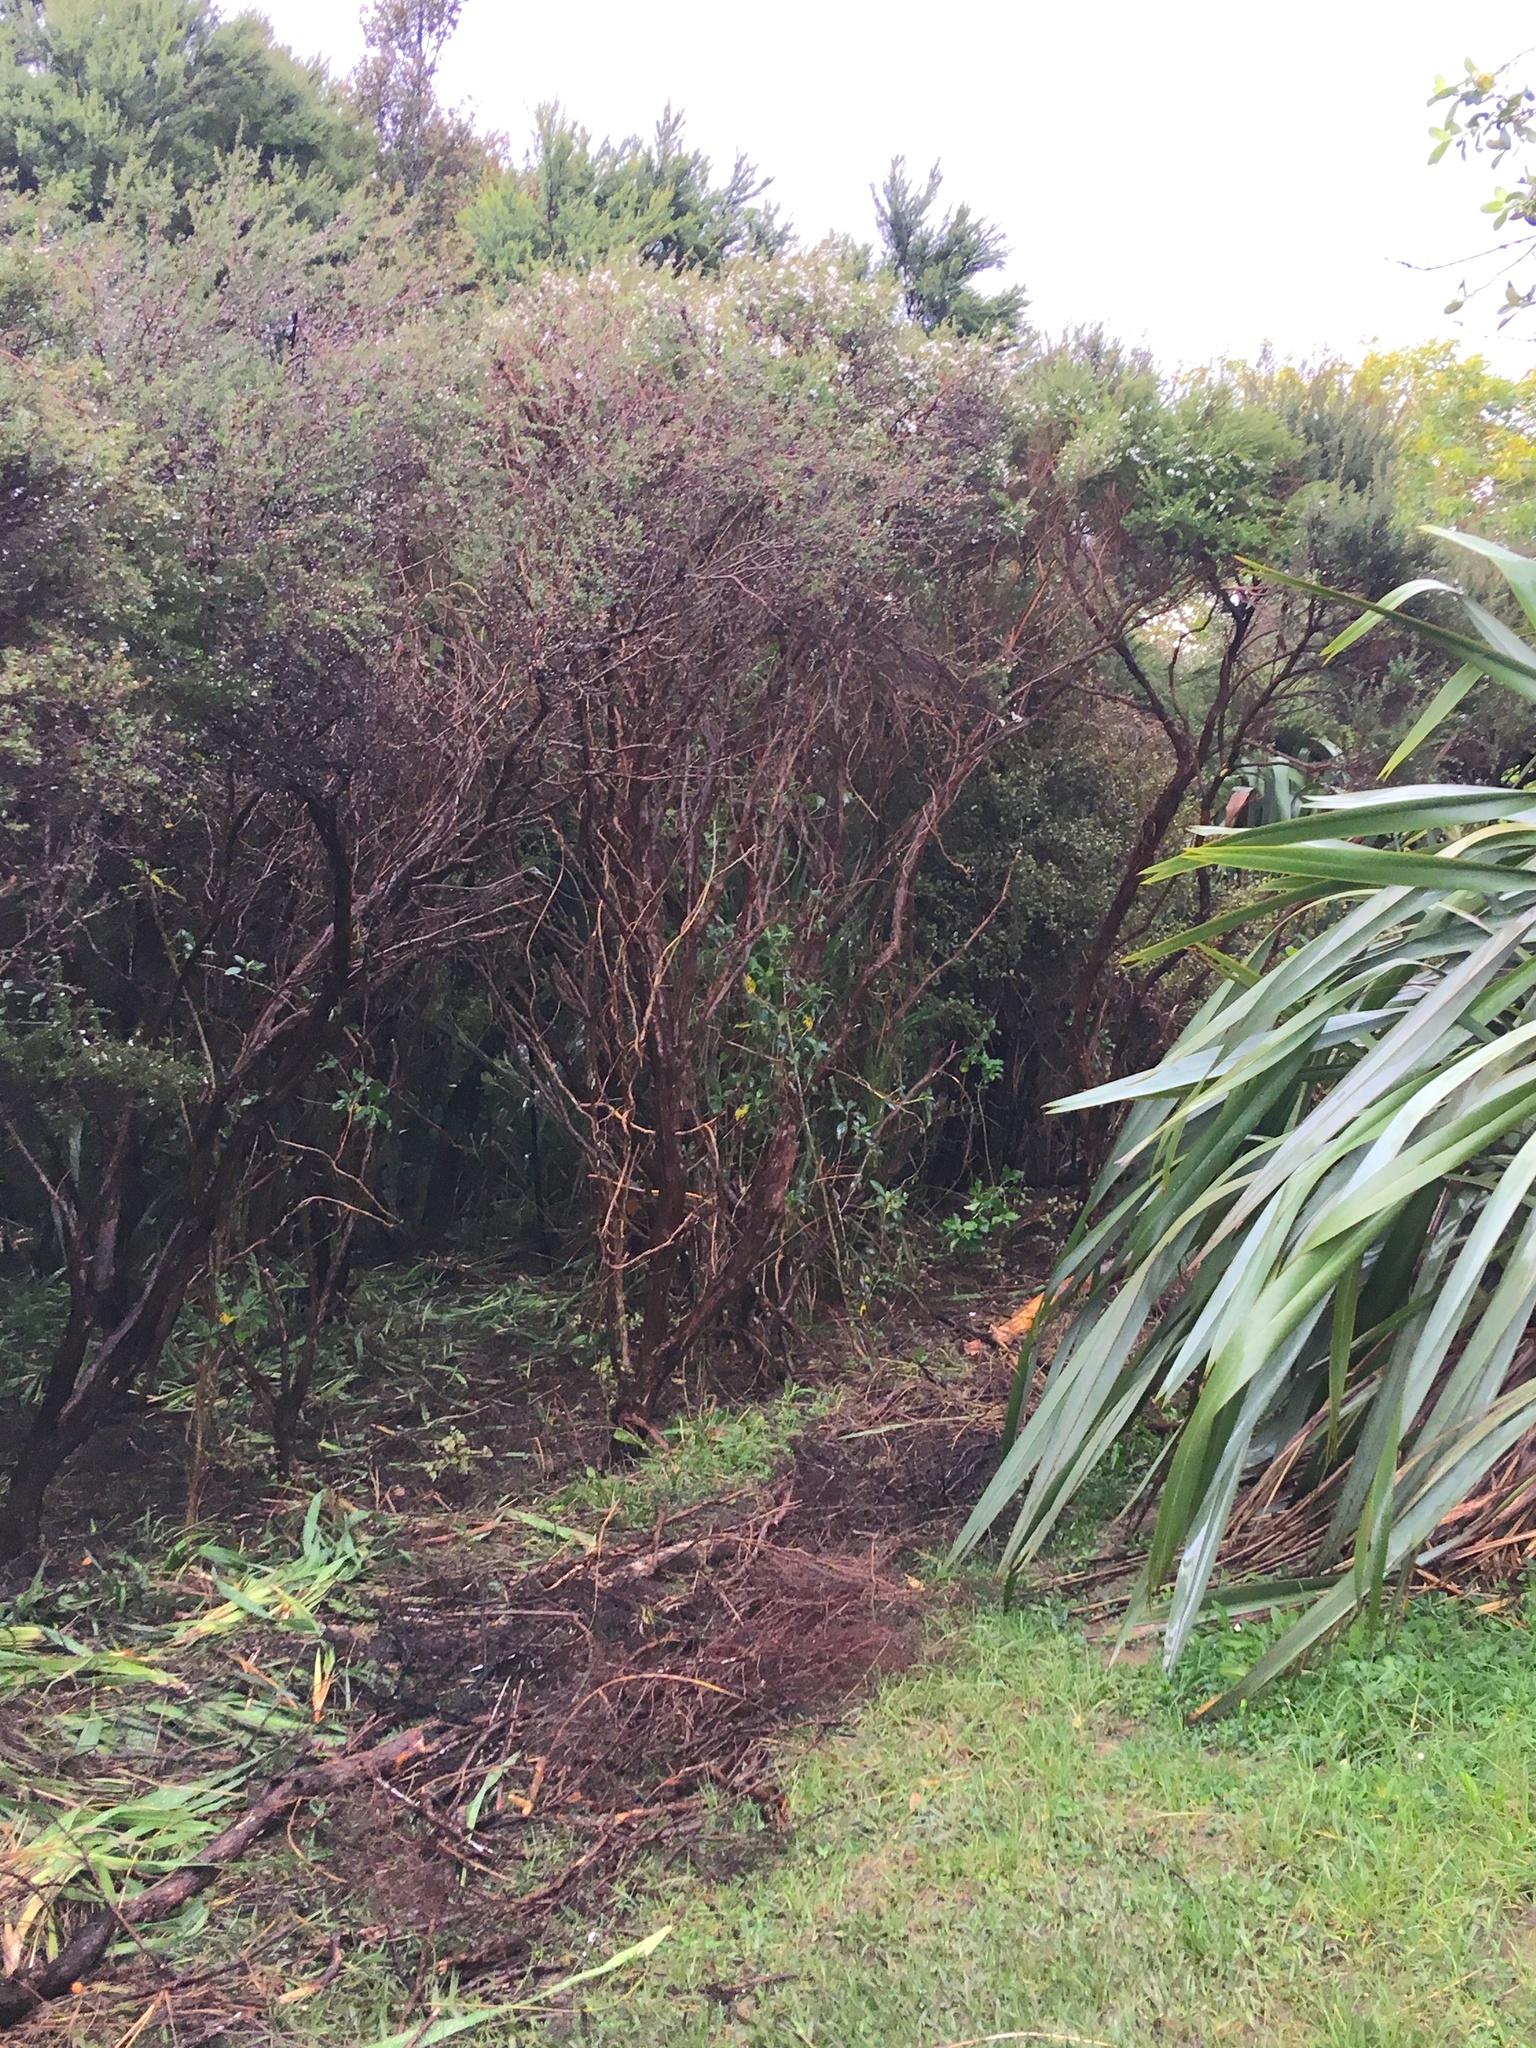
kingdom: Plantae
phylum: Tracheophyta
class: Magnoliopsida
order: Myrtales
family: Myrtaceae
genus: Leptospermum
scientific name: Leptospermum scoparium
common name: Broom tea-tree
